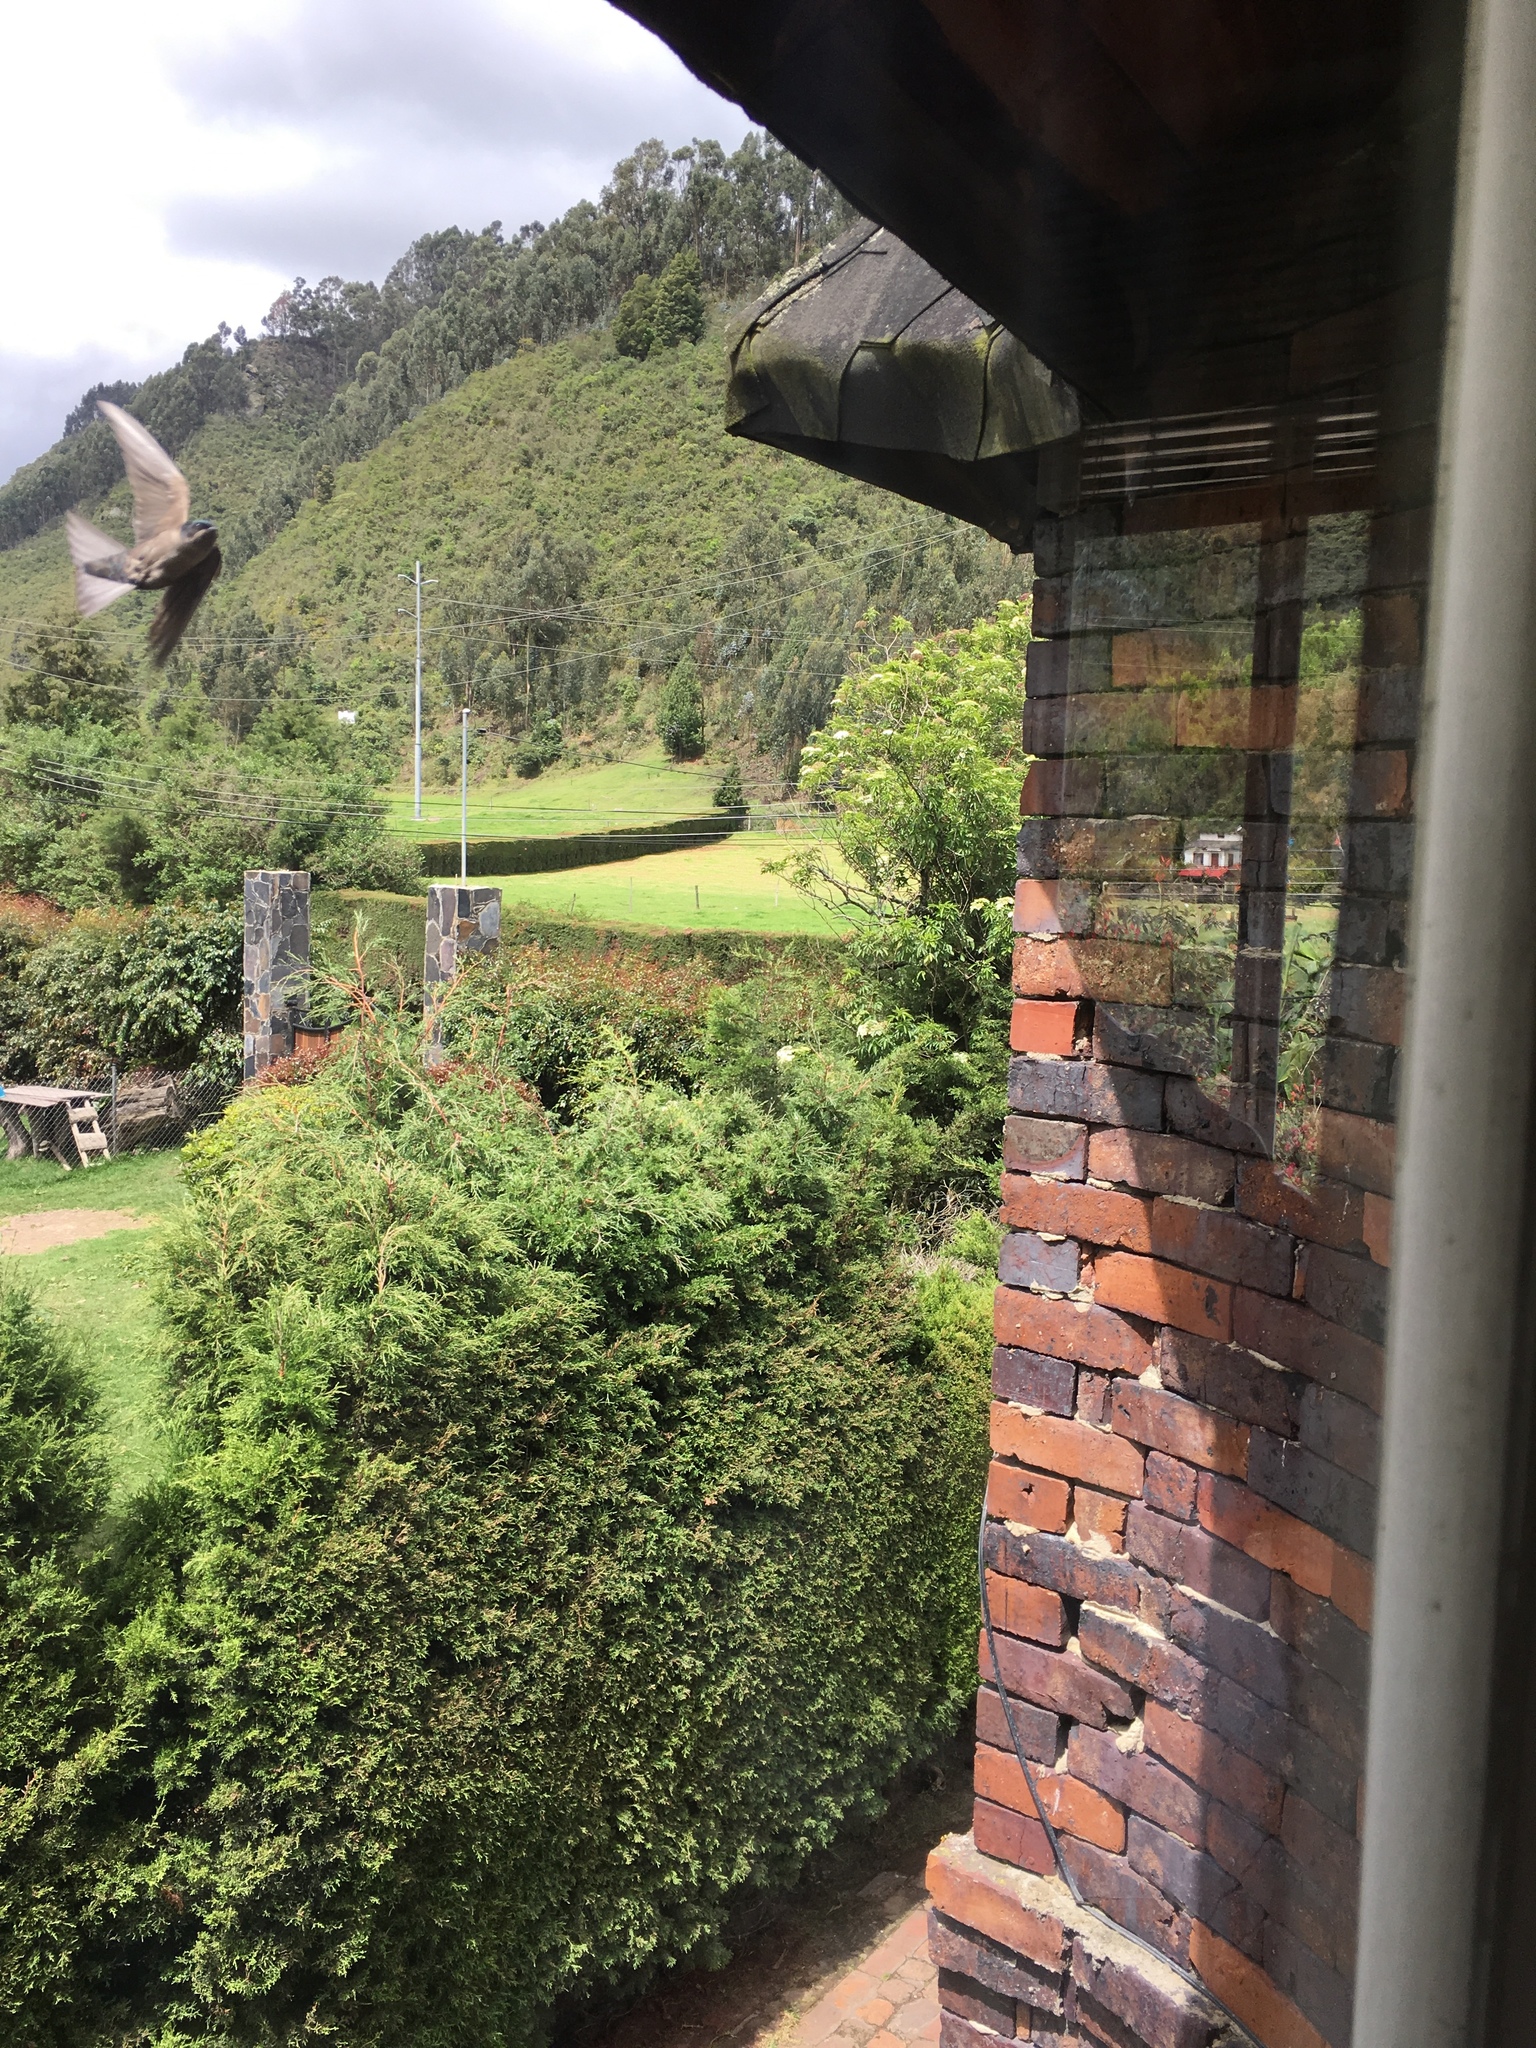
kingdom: Animalia
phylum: Chordata
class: Aves
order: Passeriformes
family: Hirundinidae
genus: Notiochelidon
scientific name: Notiochelidon murina
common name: Brown-bellied swallow
